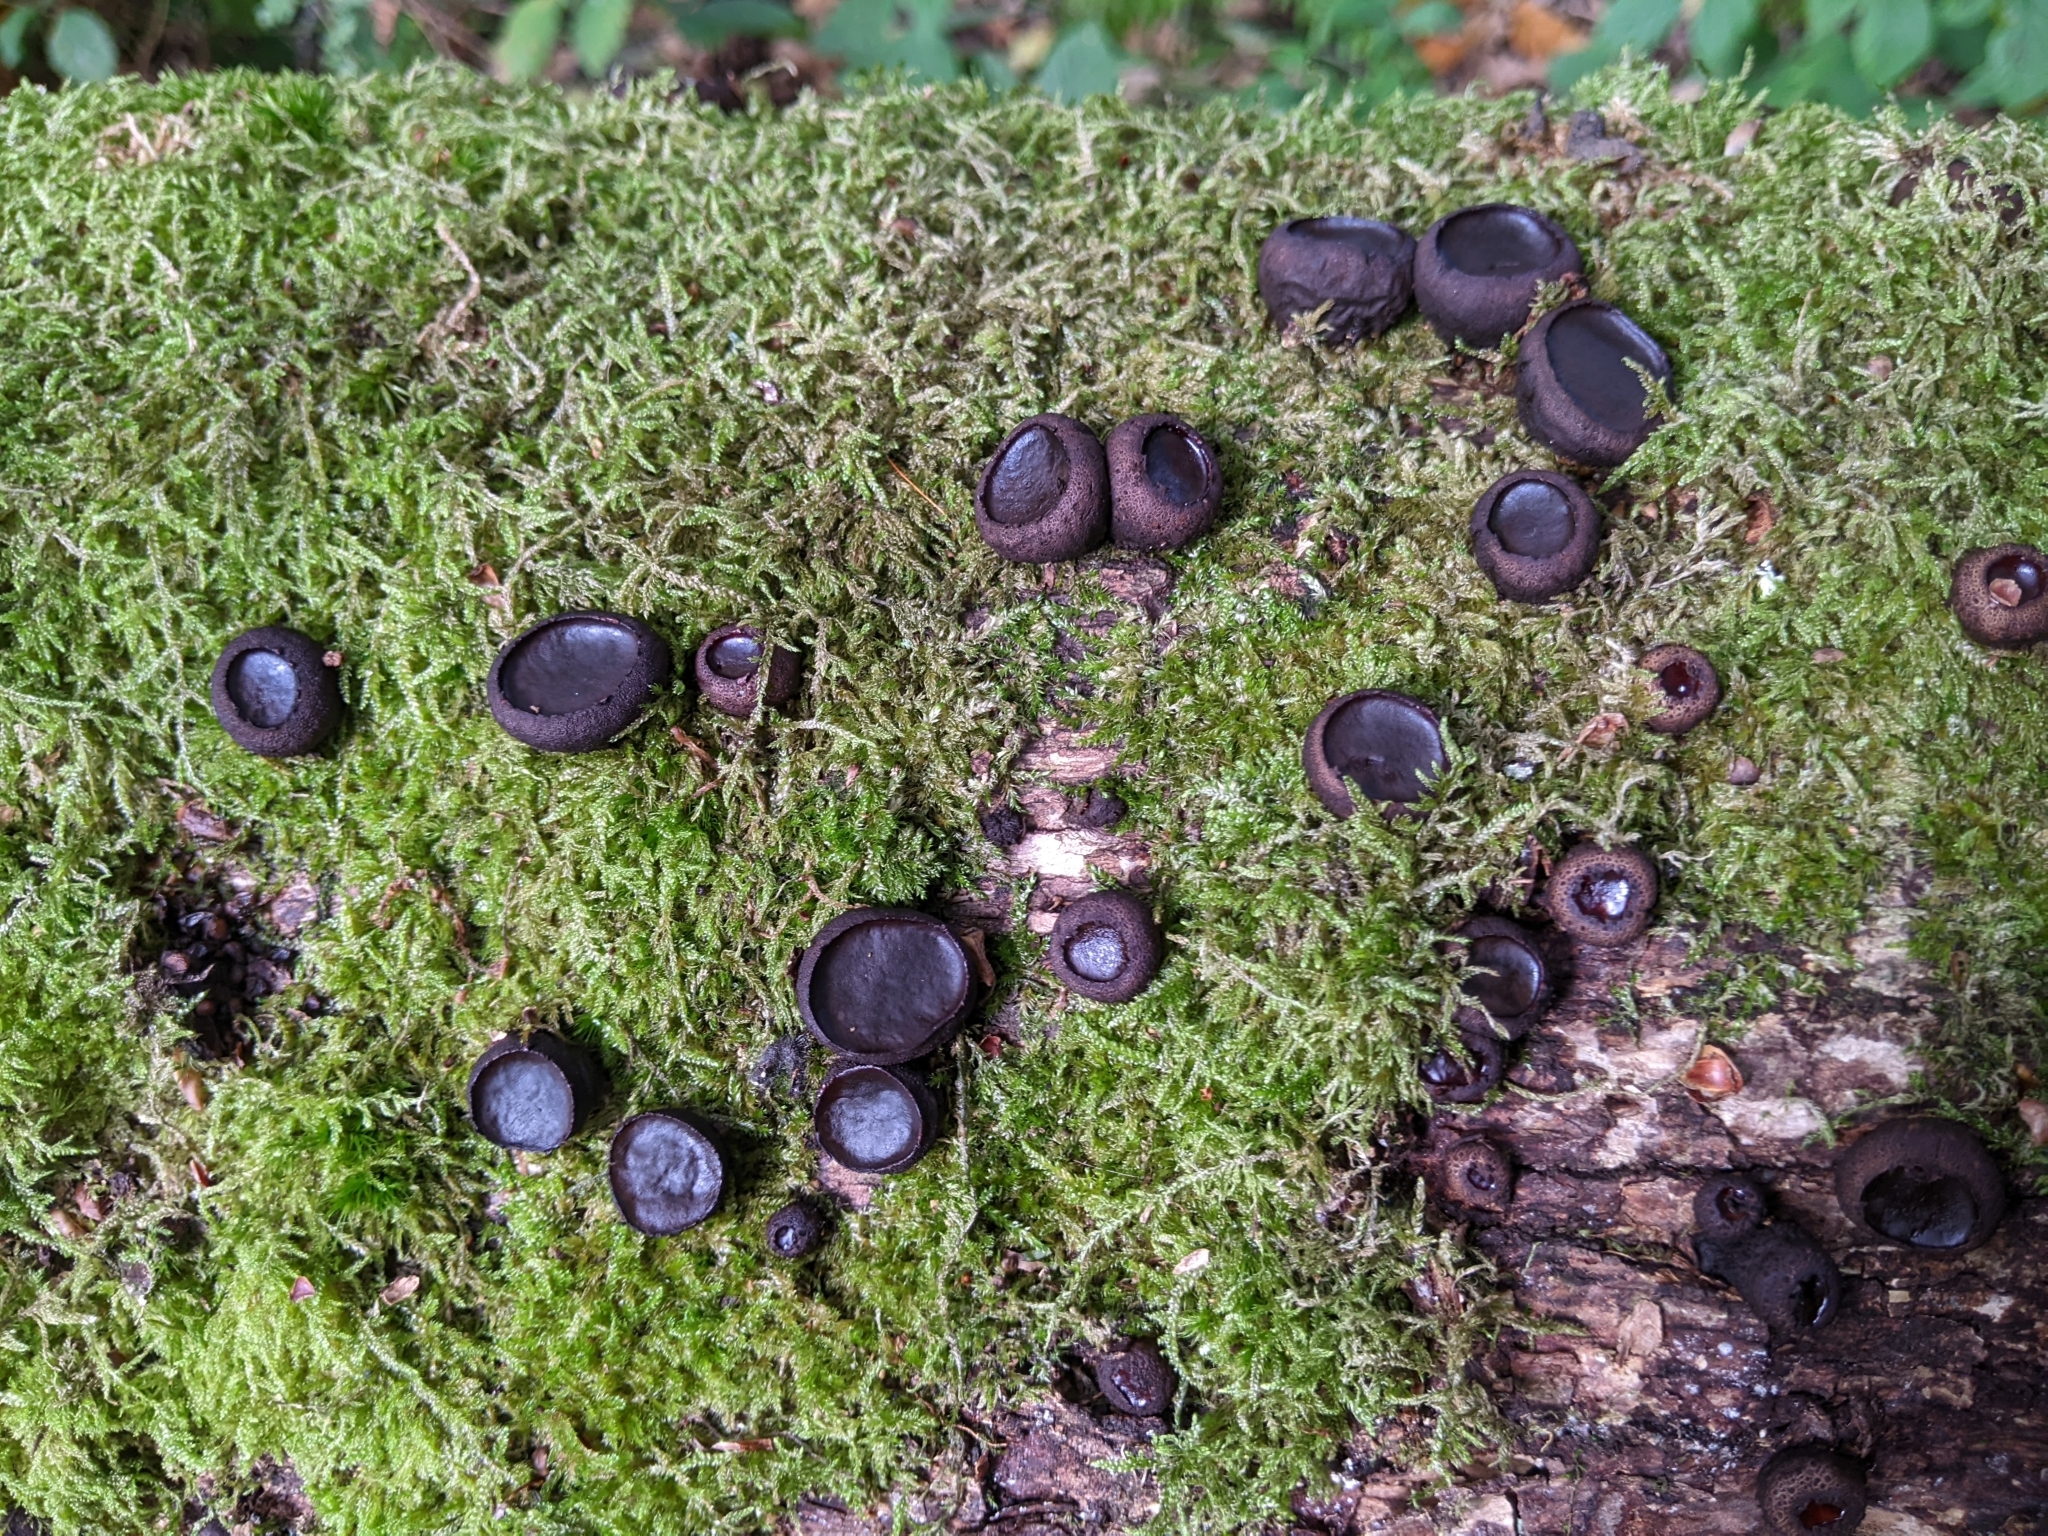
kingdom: Fungi
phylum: Ascomycota
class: Leotiomycetes
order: Phacidiales
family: Phacidiaceae
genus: Bulgaria
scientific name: Bulgaria inquinans
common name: Black bulgar
